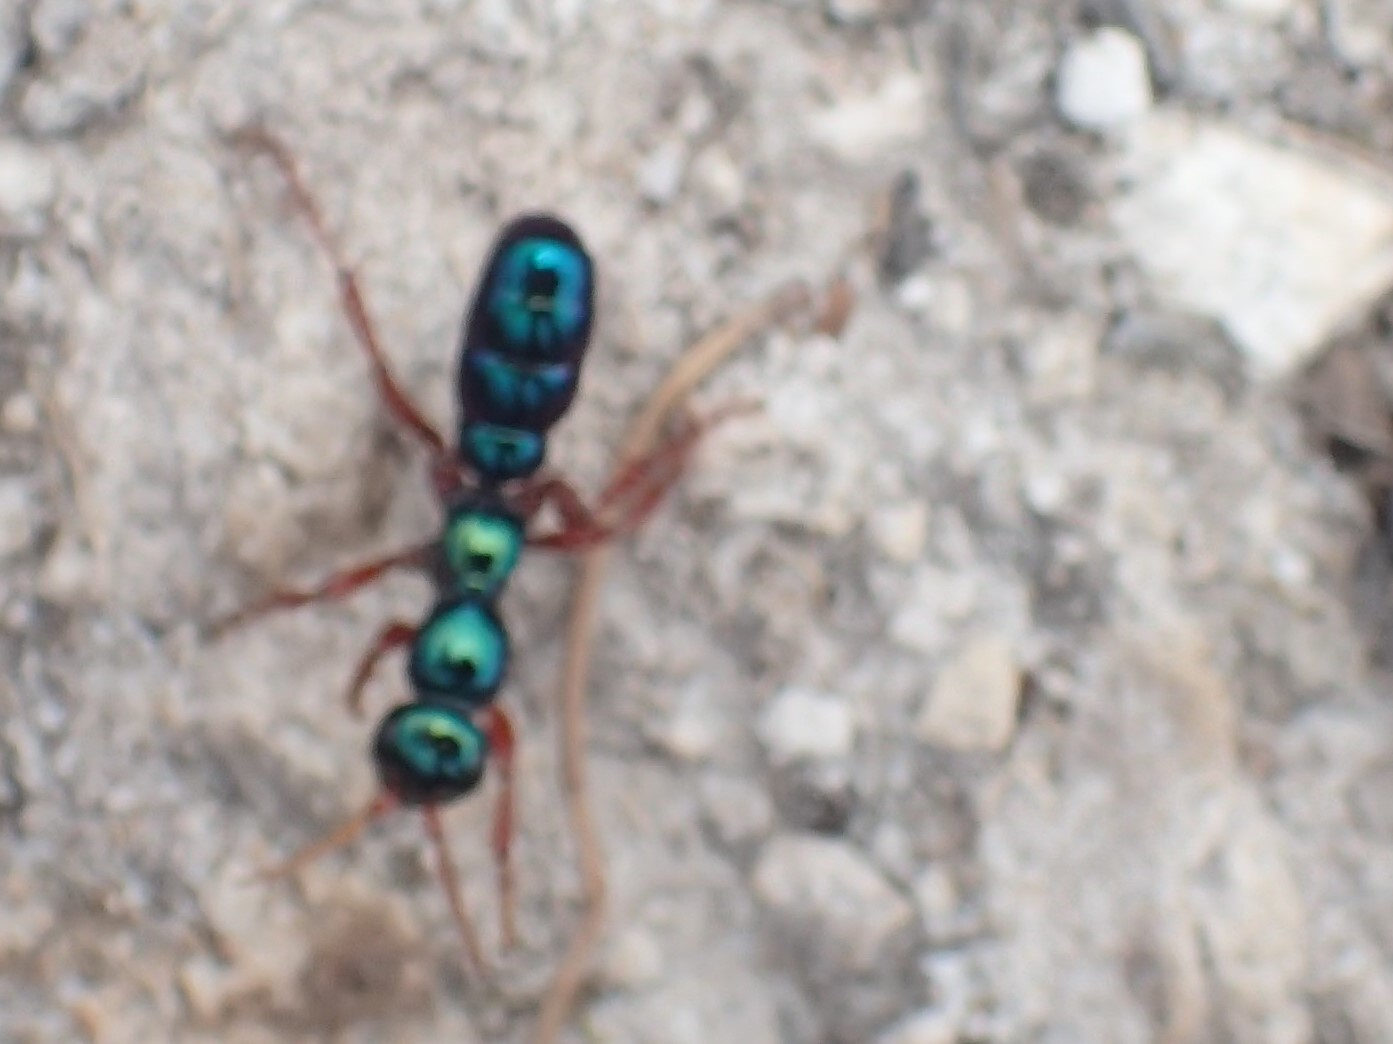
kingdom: Animalia
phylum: Arthropoda
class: Insecta
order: Hymenoptera
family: Tiphiidae
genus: Diamma
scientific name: Diamma
